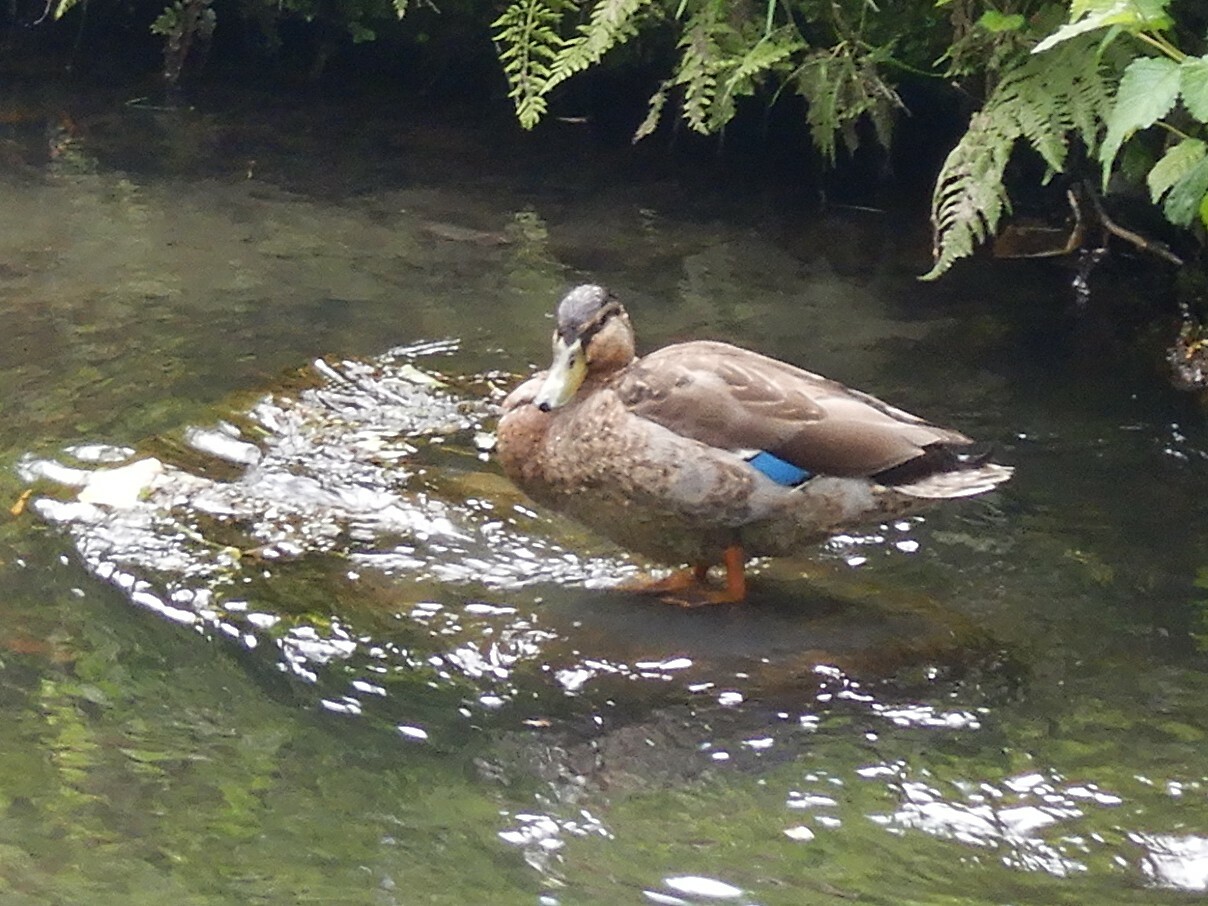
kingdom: Animalia
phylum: Chordata
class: Aves
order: Anseriformes
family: Anatidae
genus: Anas
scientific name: Anas
